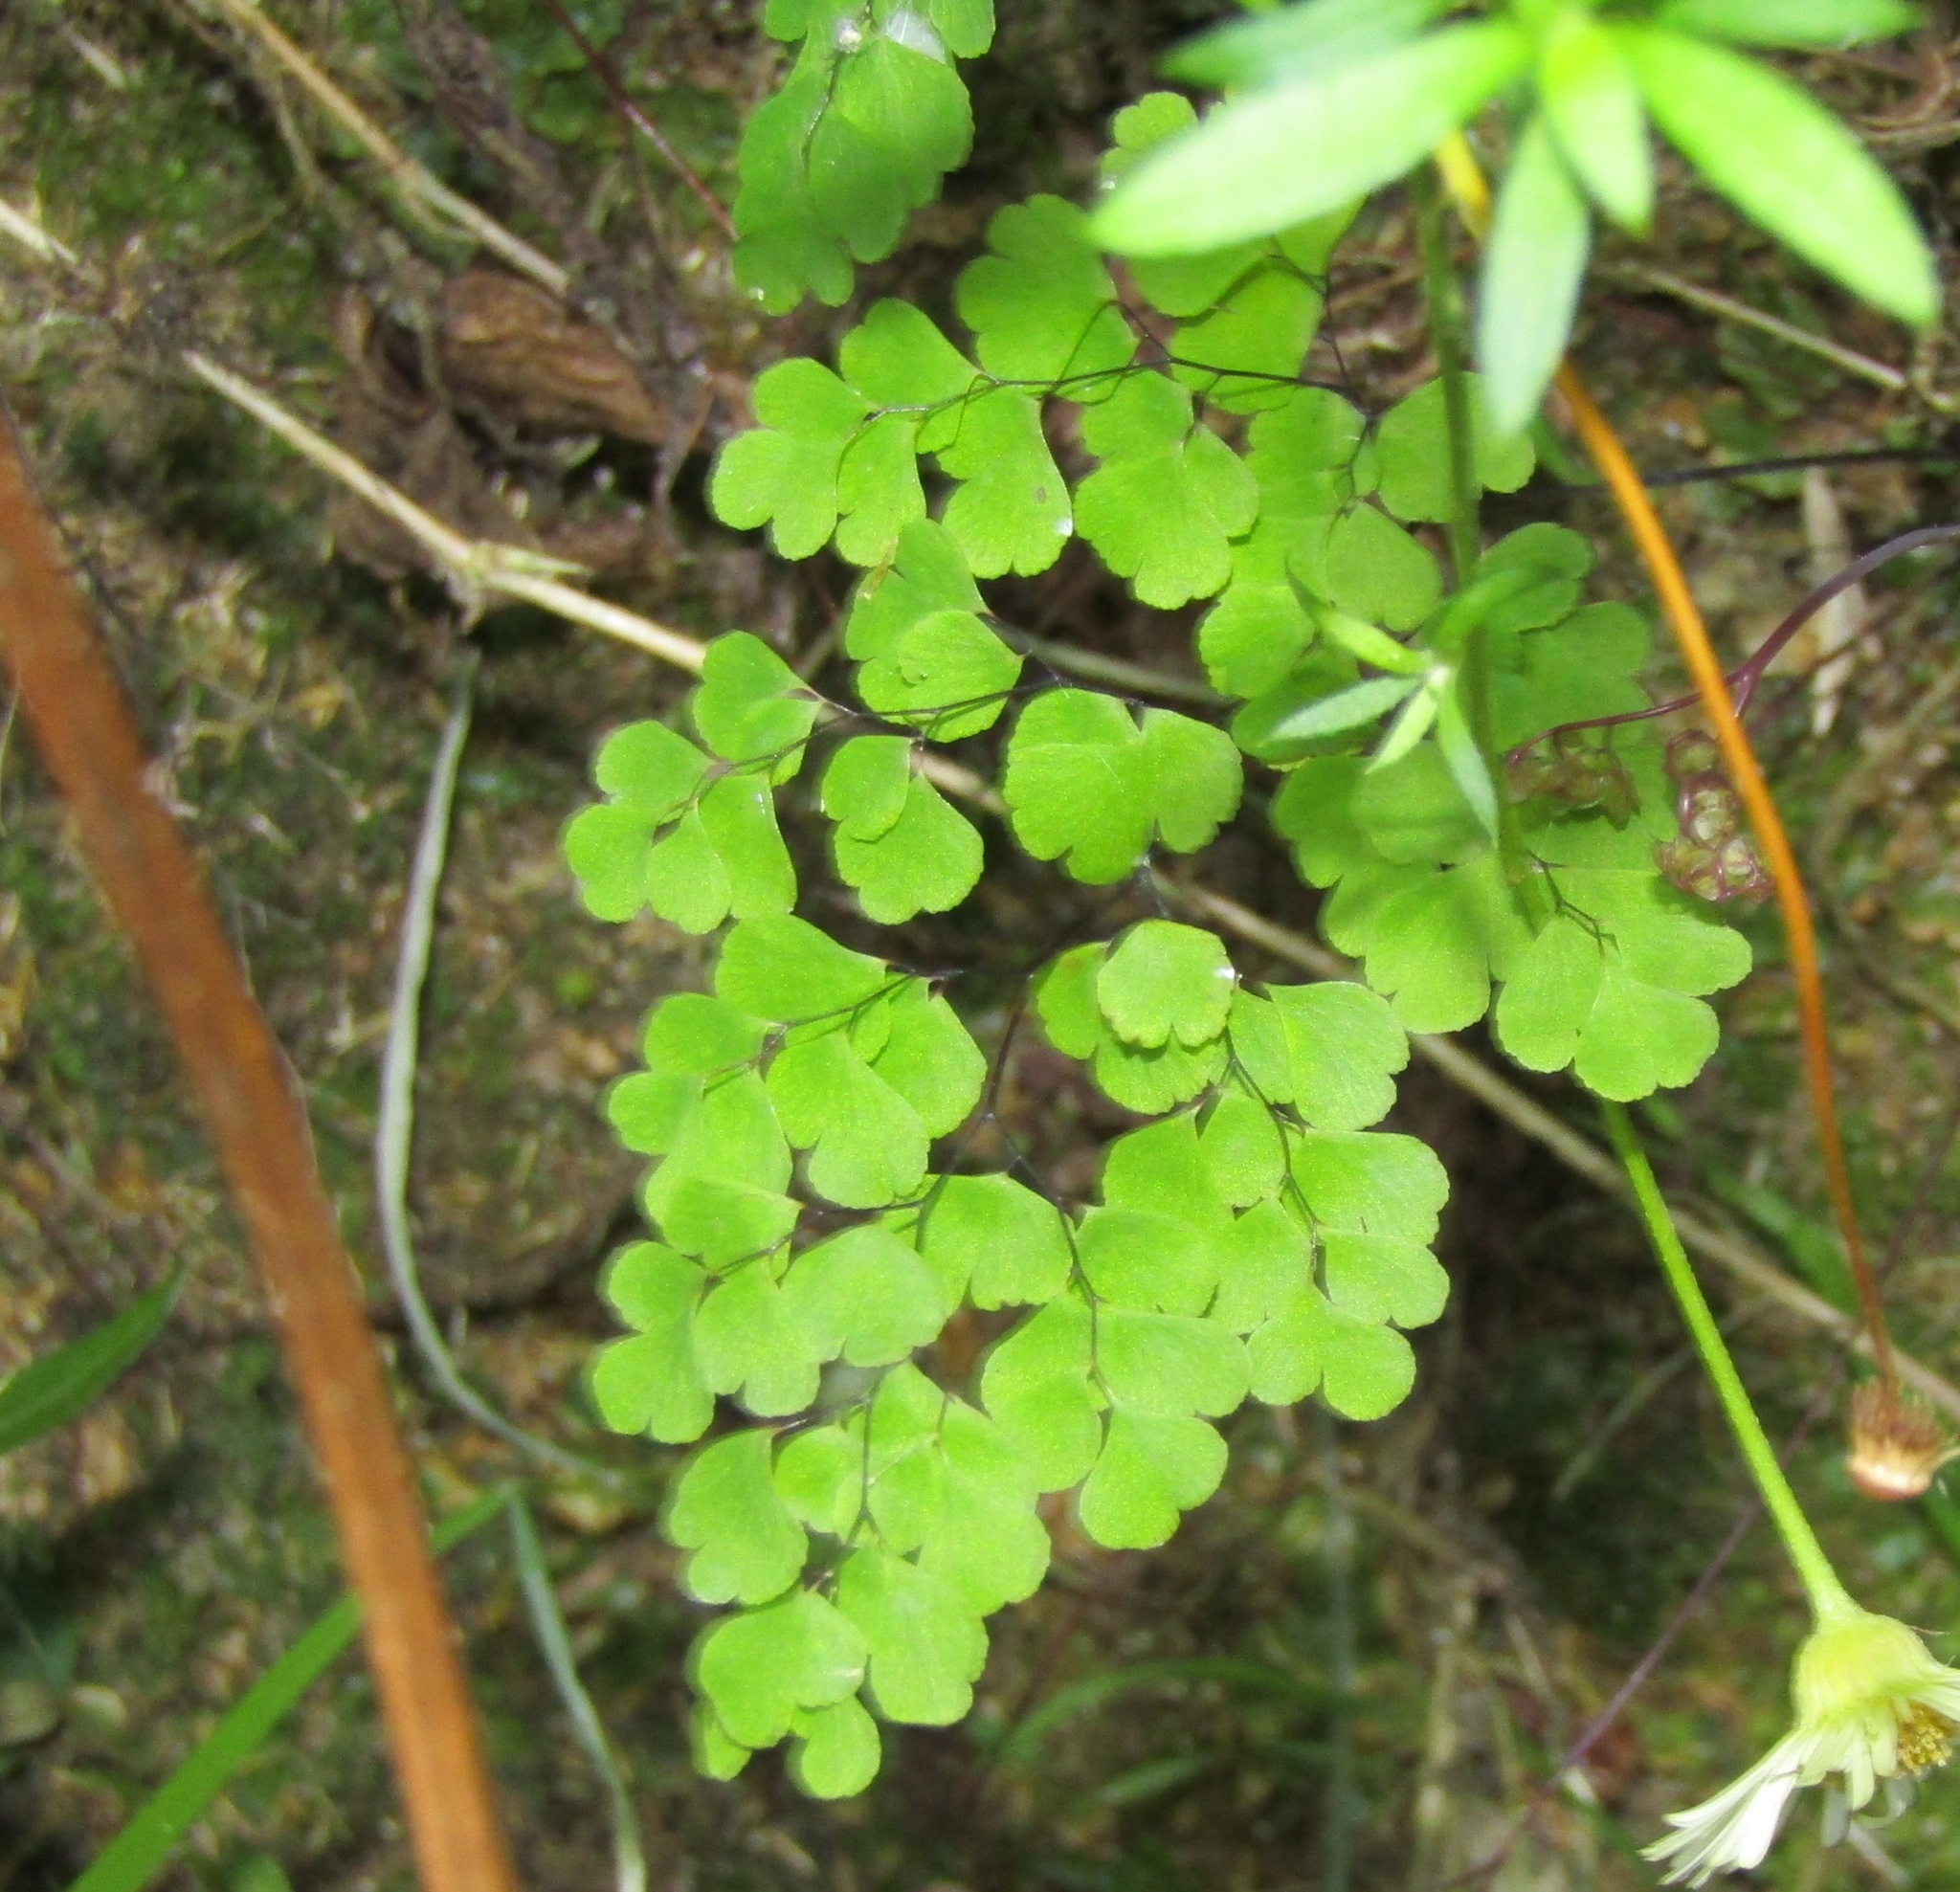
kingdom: Plantae
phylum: Tracheophyta
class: Polypodiopsida
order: Polypodiales
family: Pteridaceae
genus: Adiantum
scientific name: Adiantum raddianum
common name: Delta maidenhair fern
